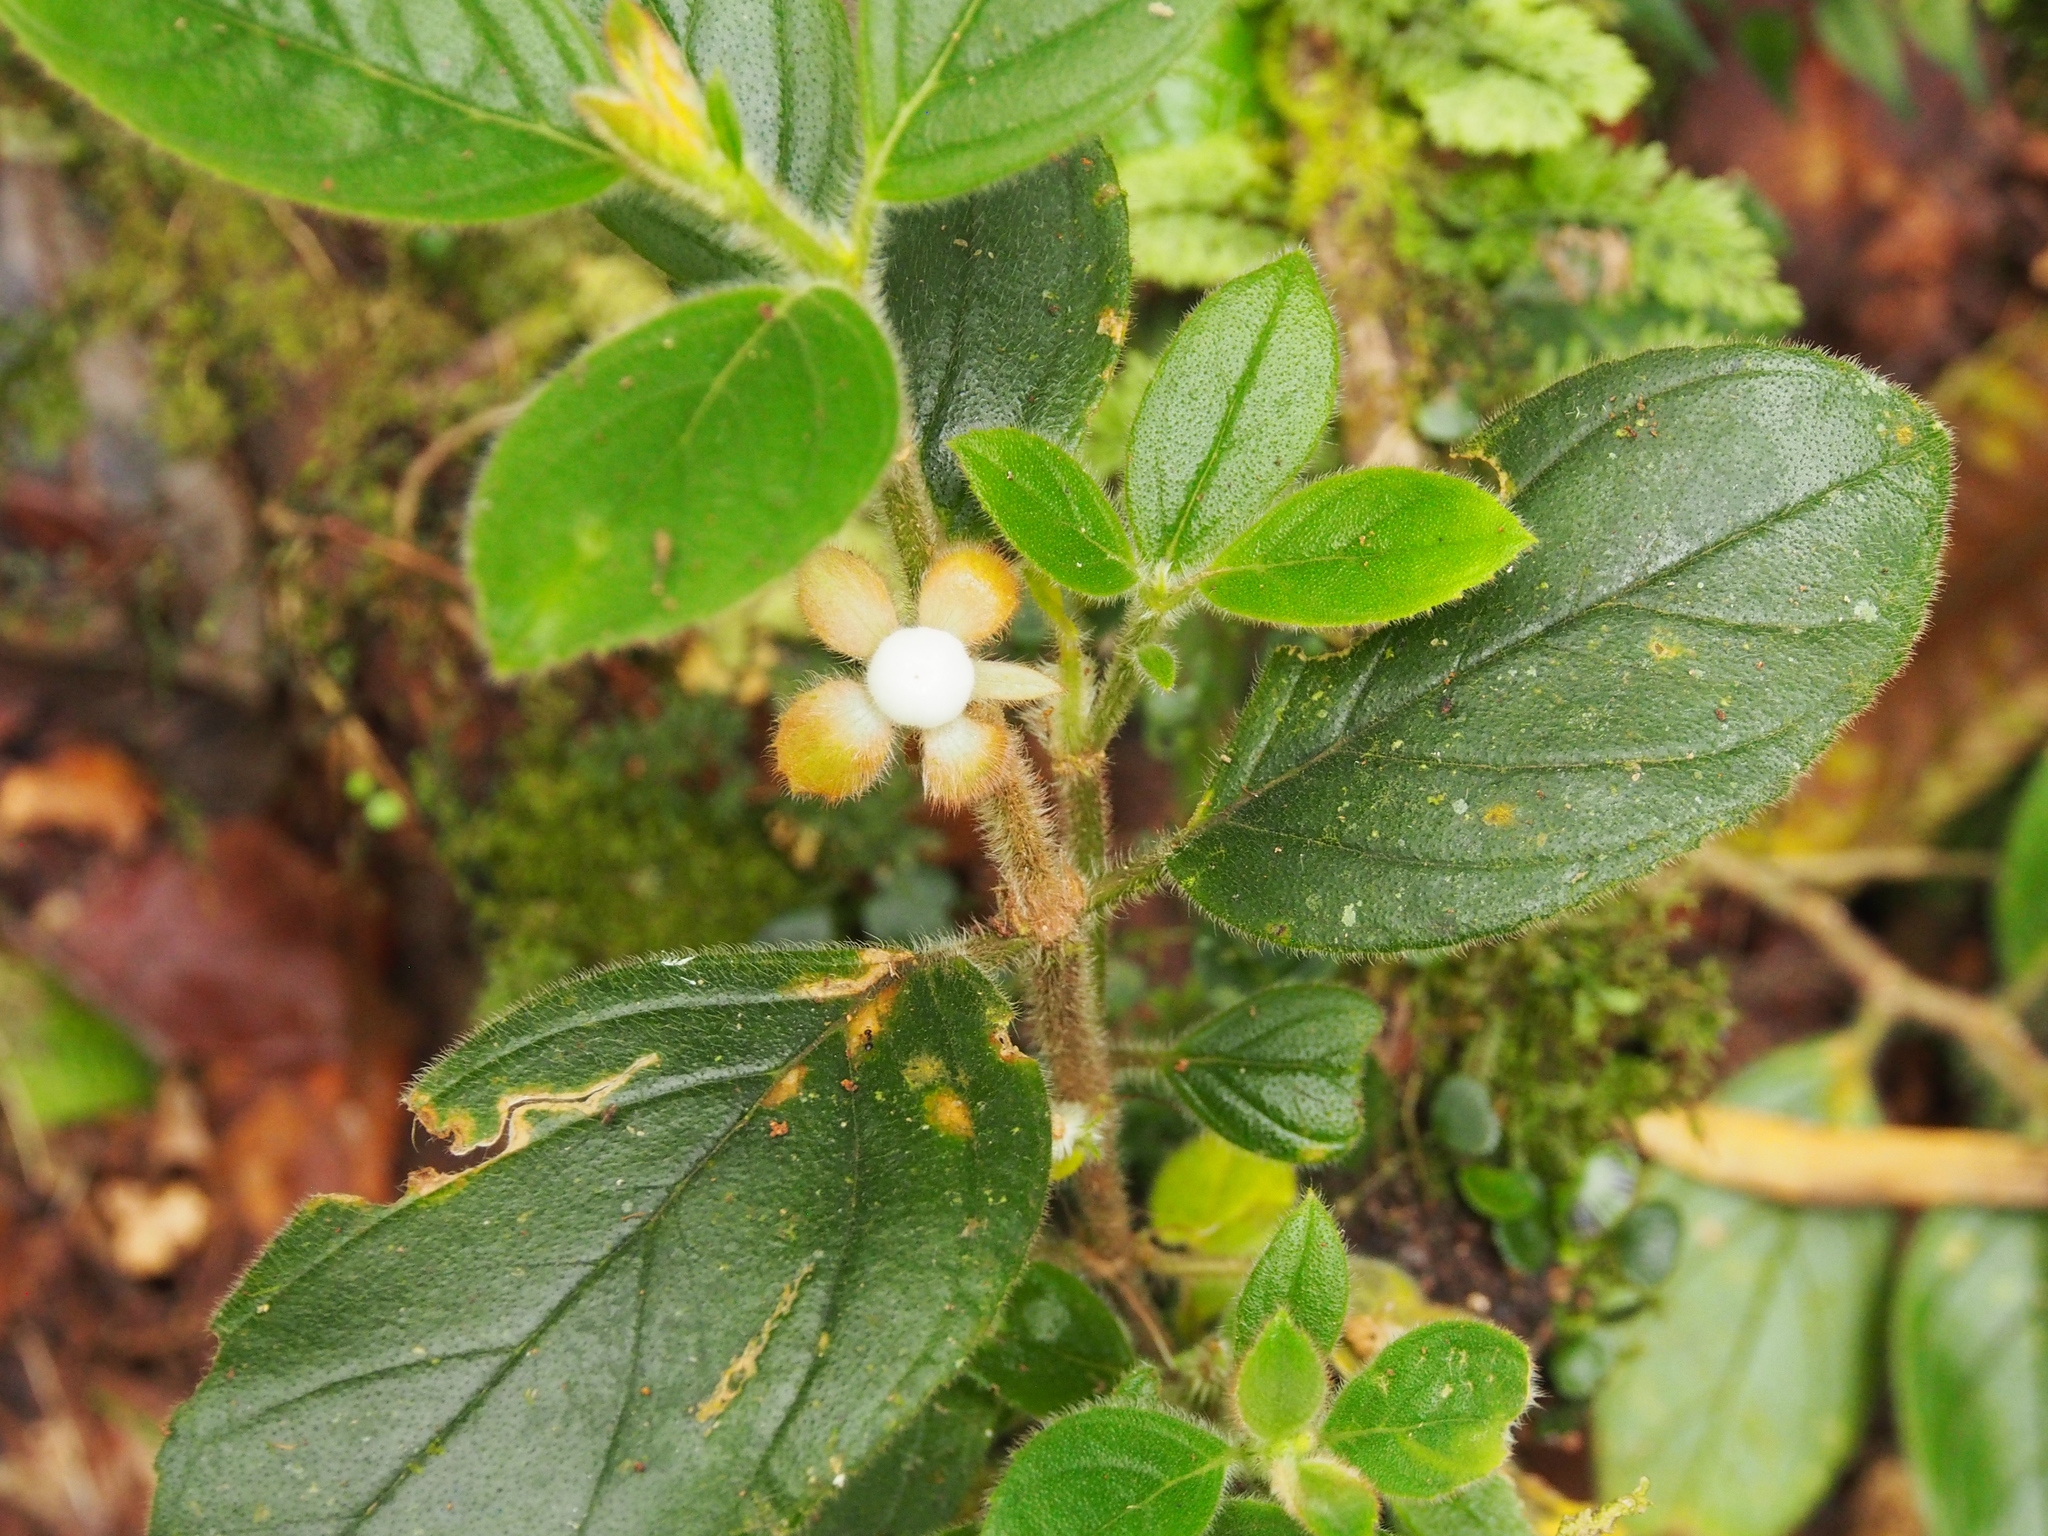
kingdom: Plantae
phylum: Tracheophyta
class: Magnoliopsida
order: Lamiales
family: Gesneriaceae
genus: Columnea
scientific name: Columnea parviflora
